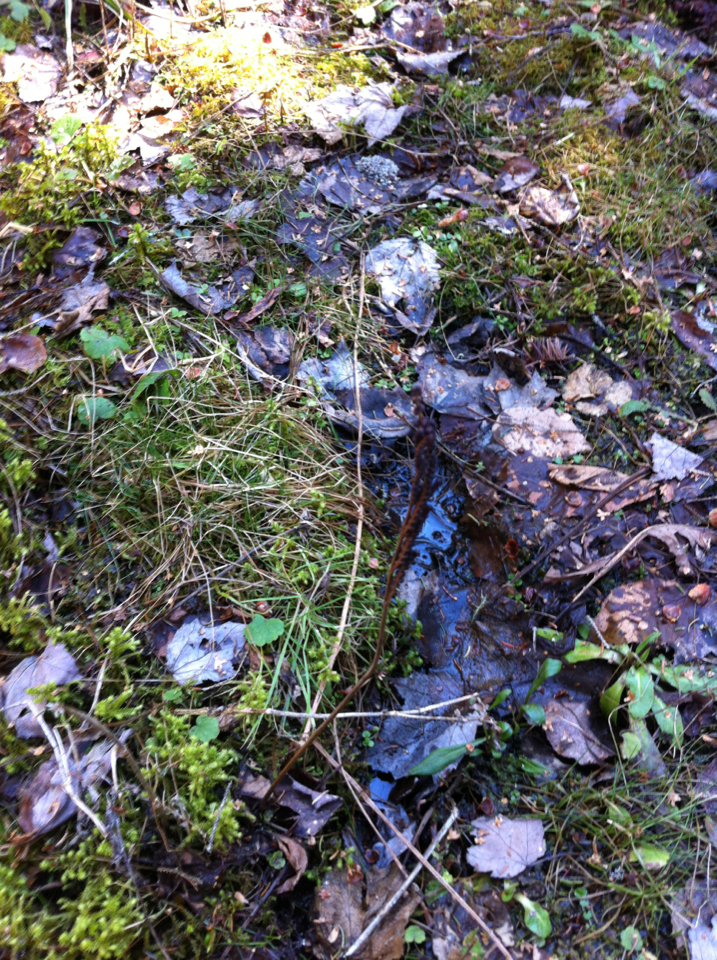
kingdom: Plantae
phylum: Tracheophyta
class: Polypodiopsida
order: Polypodiales
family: Onocleaceae
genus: Onoclea
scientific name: Onoclea sensibilis
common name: Sensitive fern
